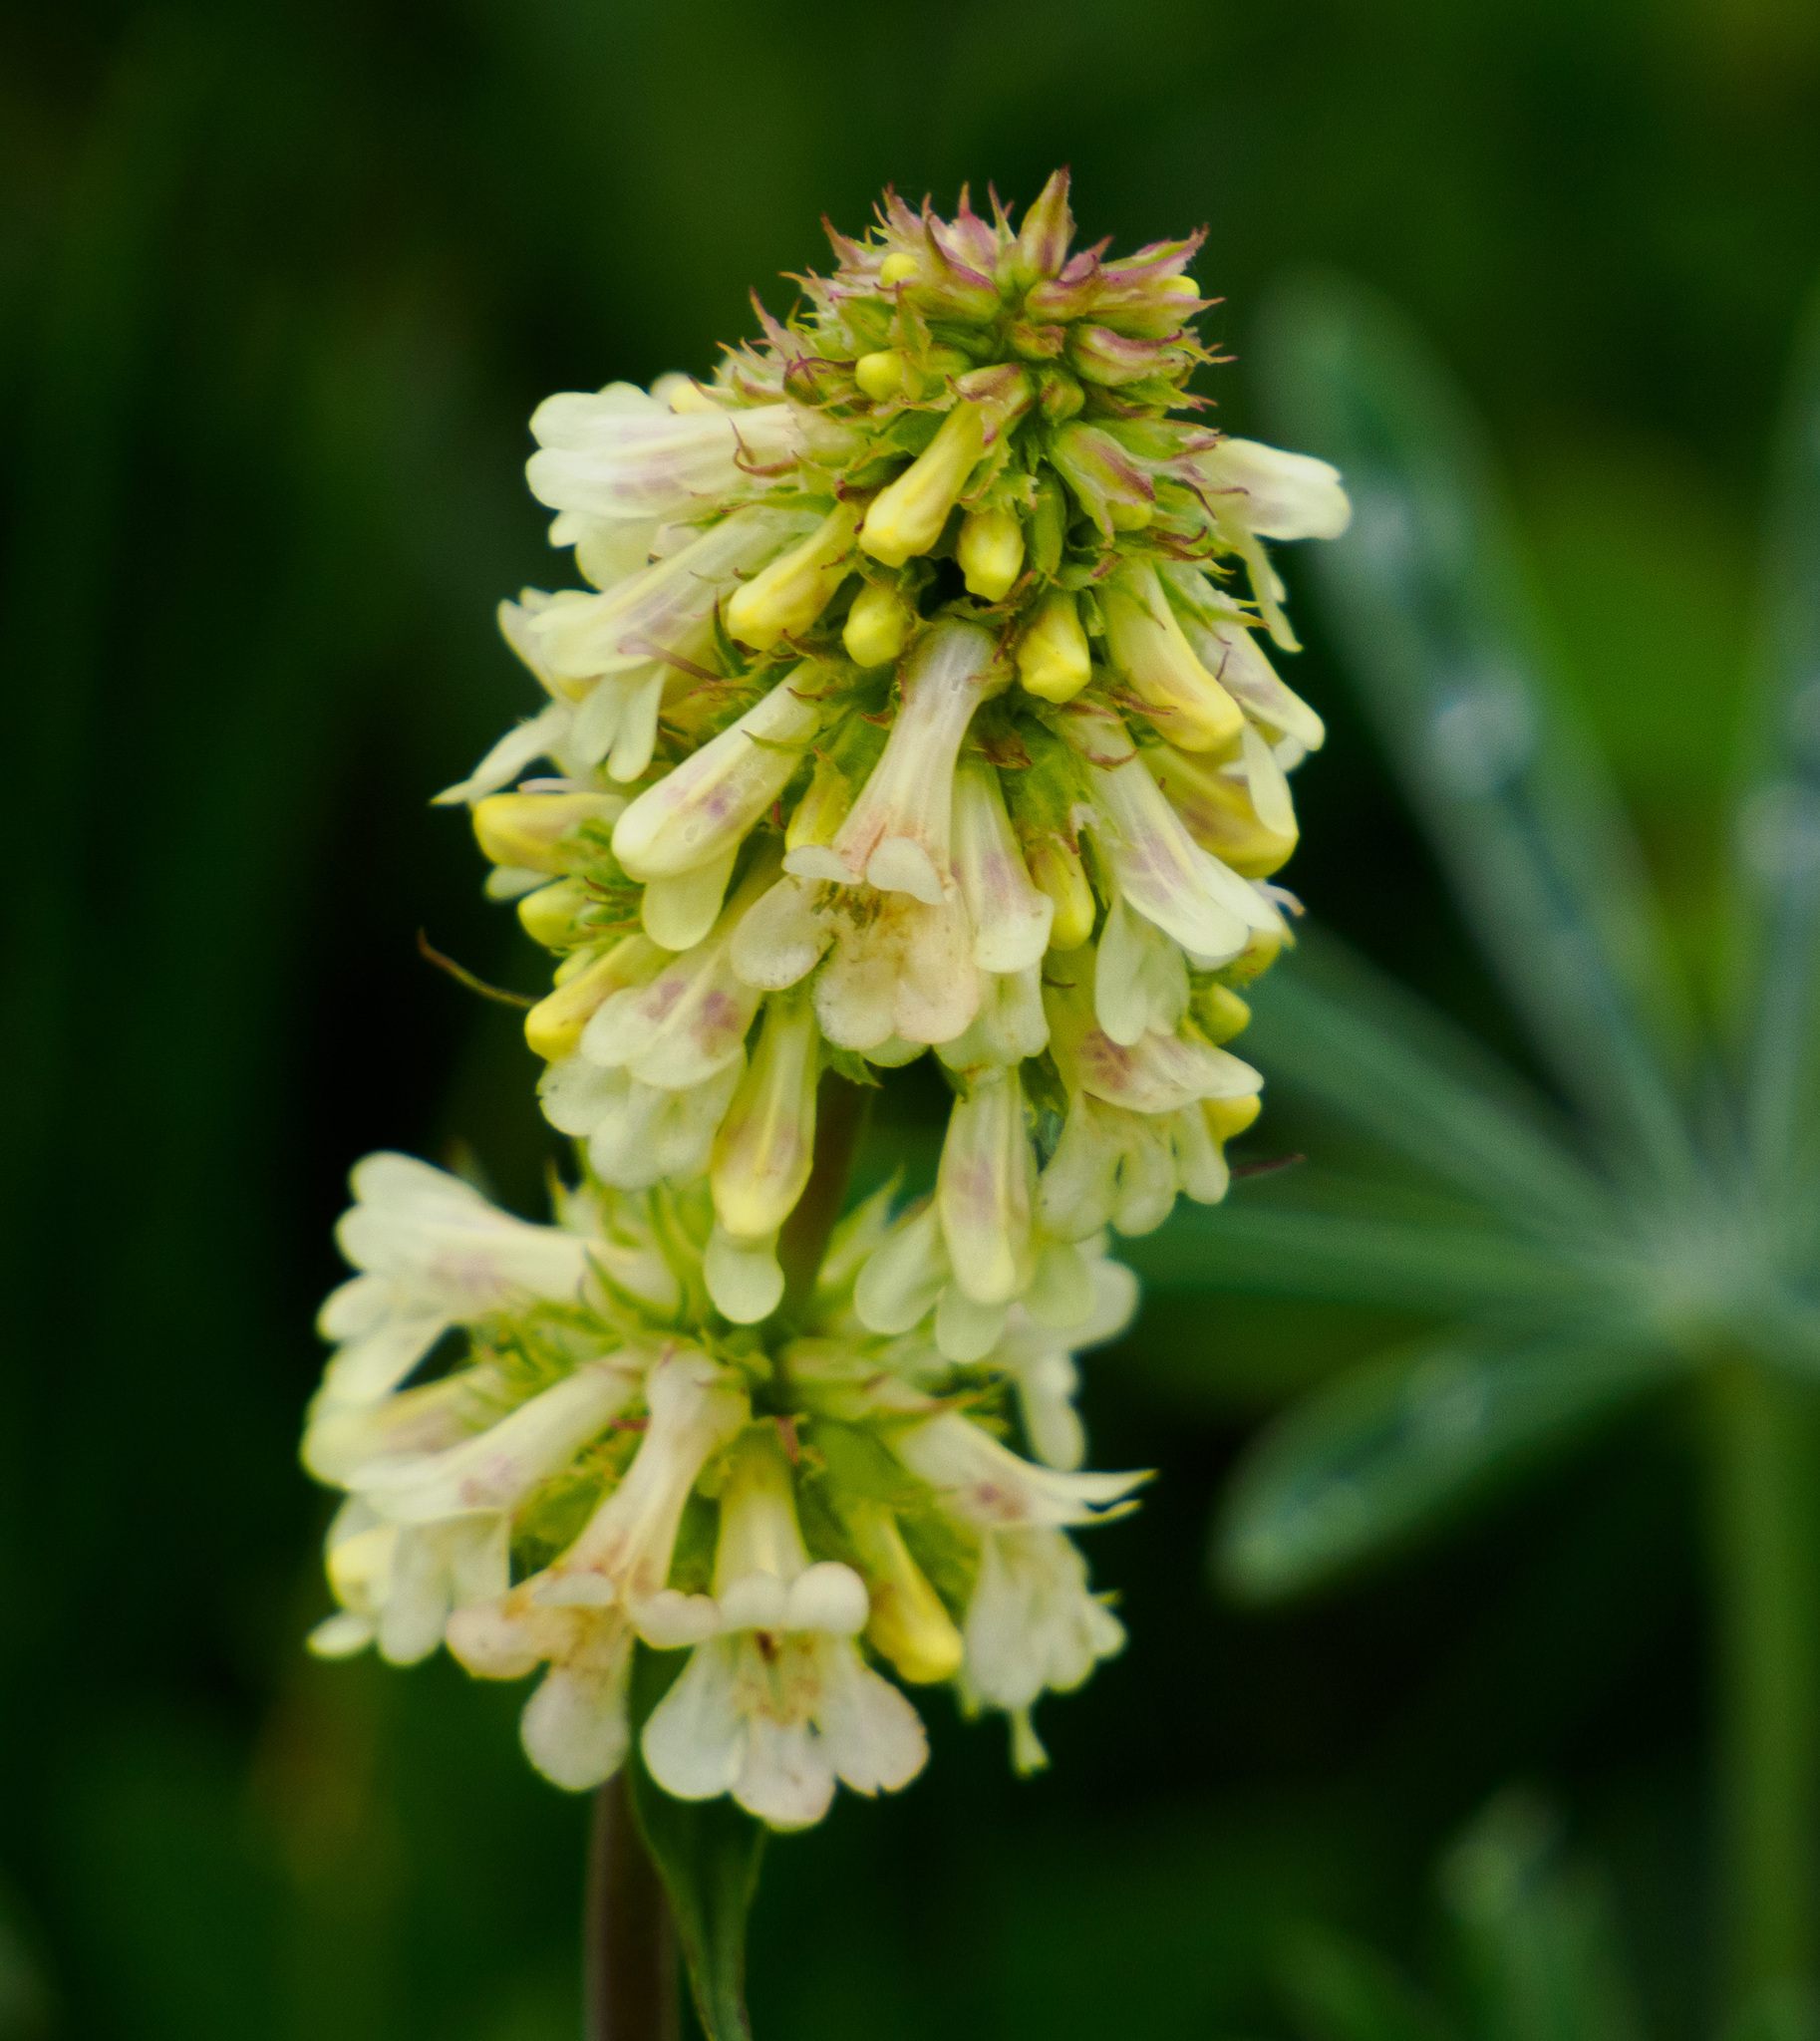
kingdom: Plantae
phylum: Tracheophyta
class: Magnoliopsida
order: Lamiales
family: Plantaginaceae
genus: Penstemon
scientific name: Penstemon confertus
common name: Lesser yellow beardtongue
